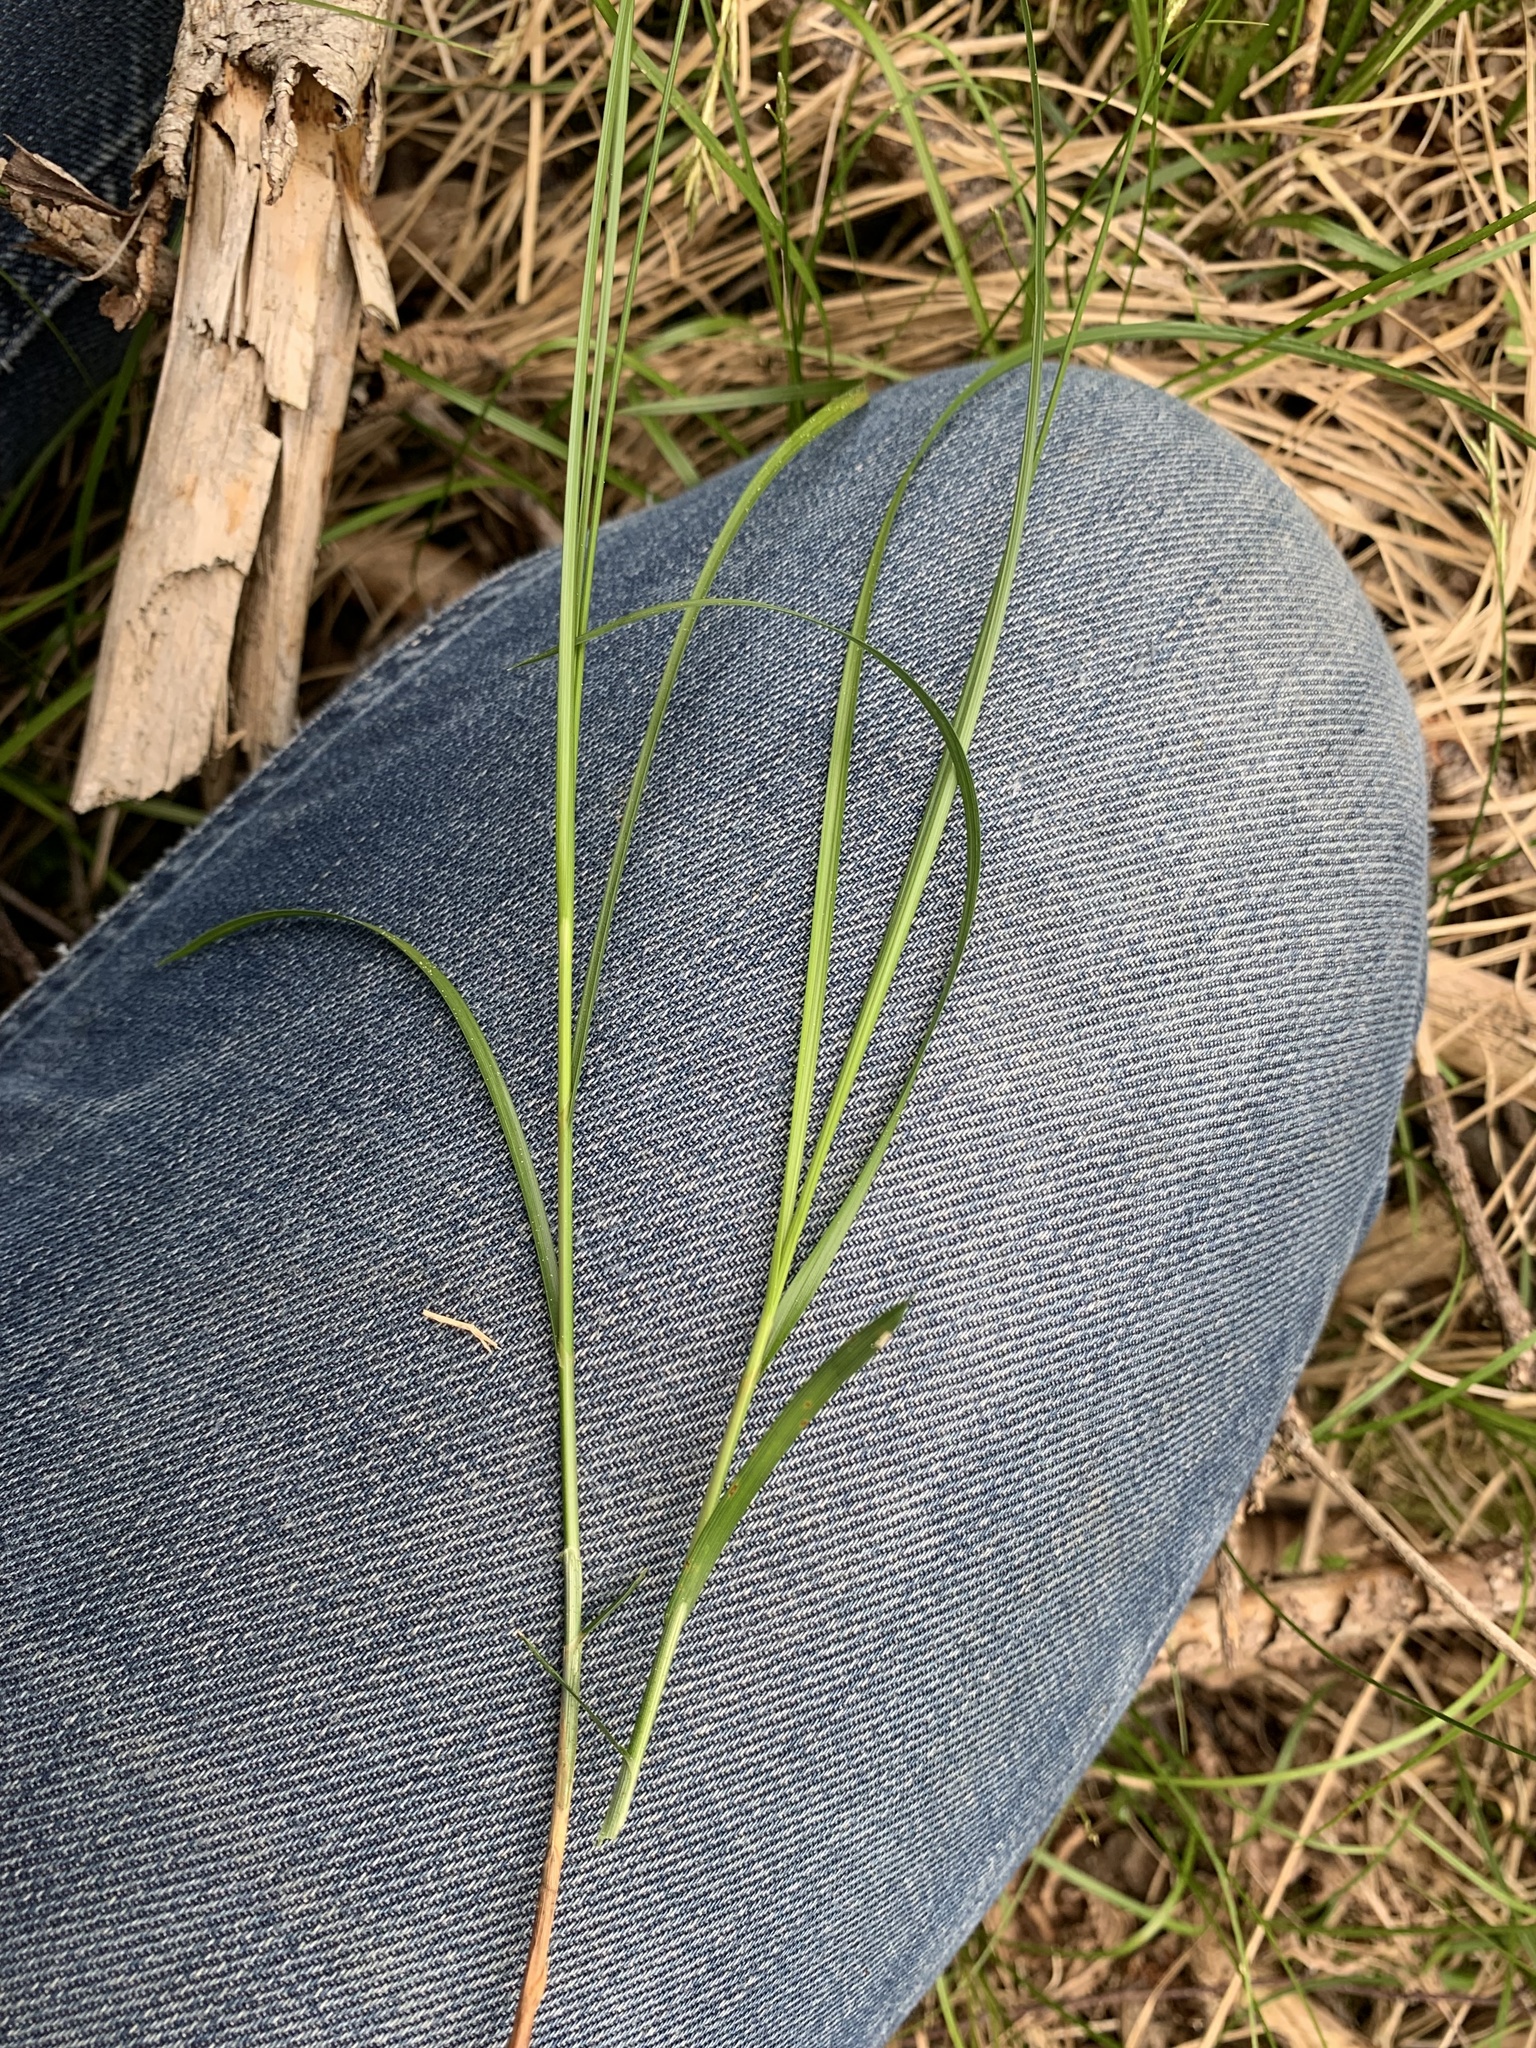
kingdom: Plantae
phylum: Tracheophyta
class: Liliopsida
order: Poales
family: Cyperaceae
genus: Carex
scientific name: Carex brizoides
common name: Quaking-grass sedge
